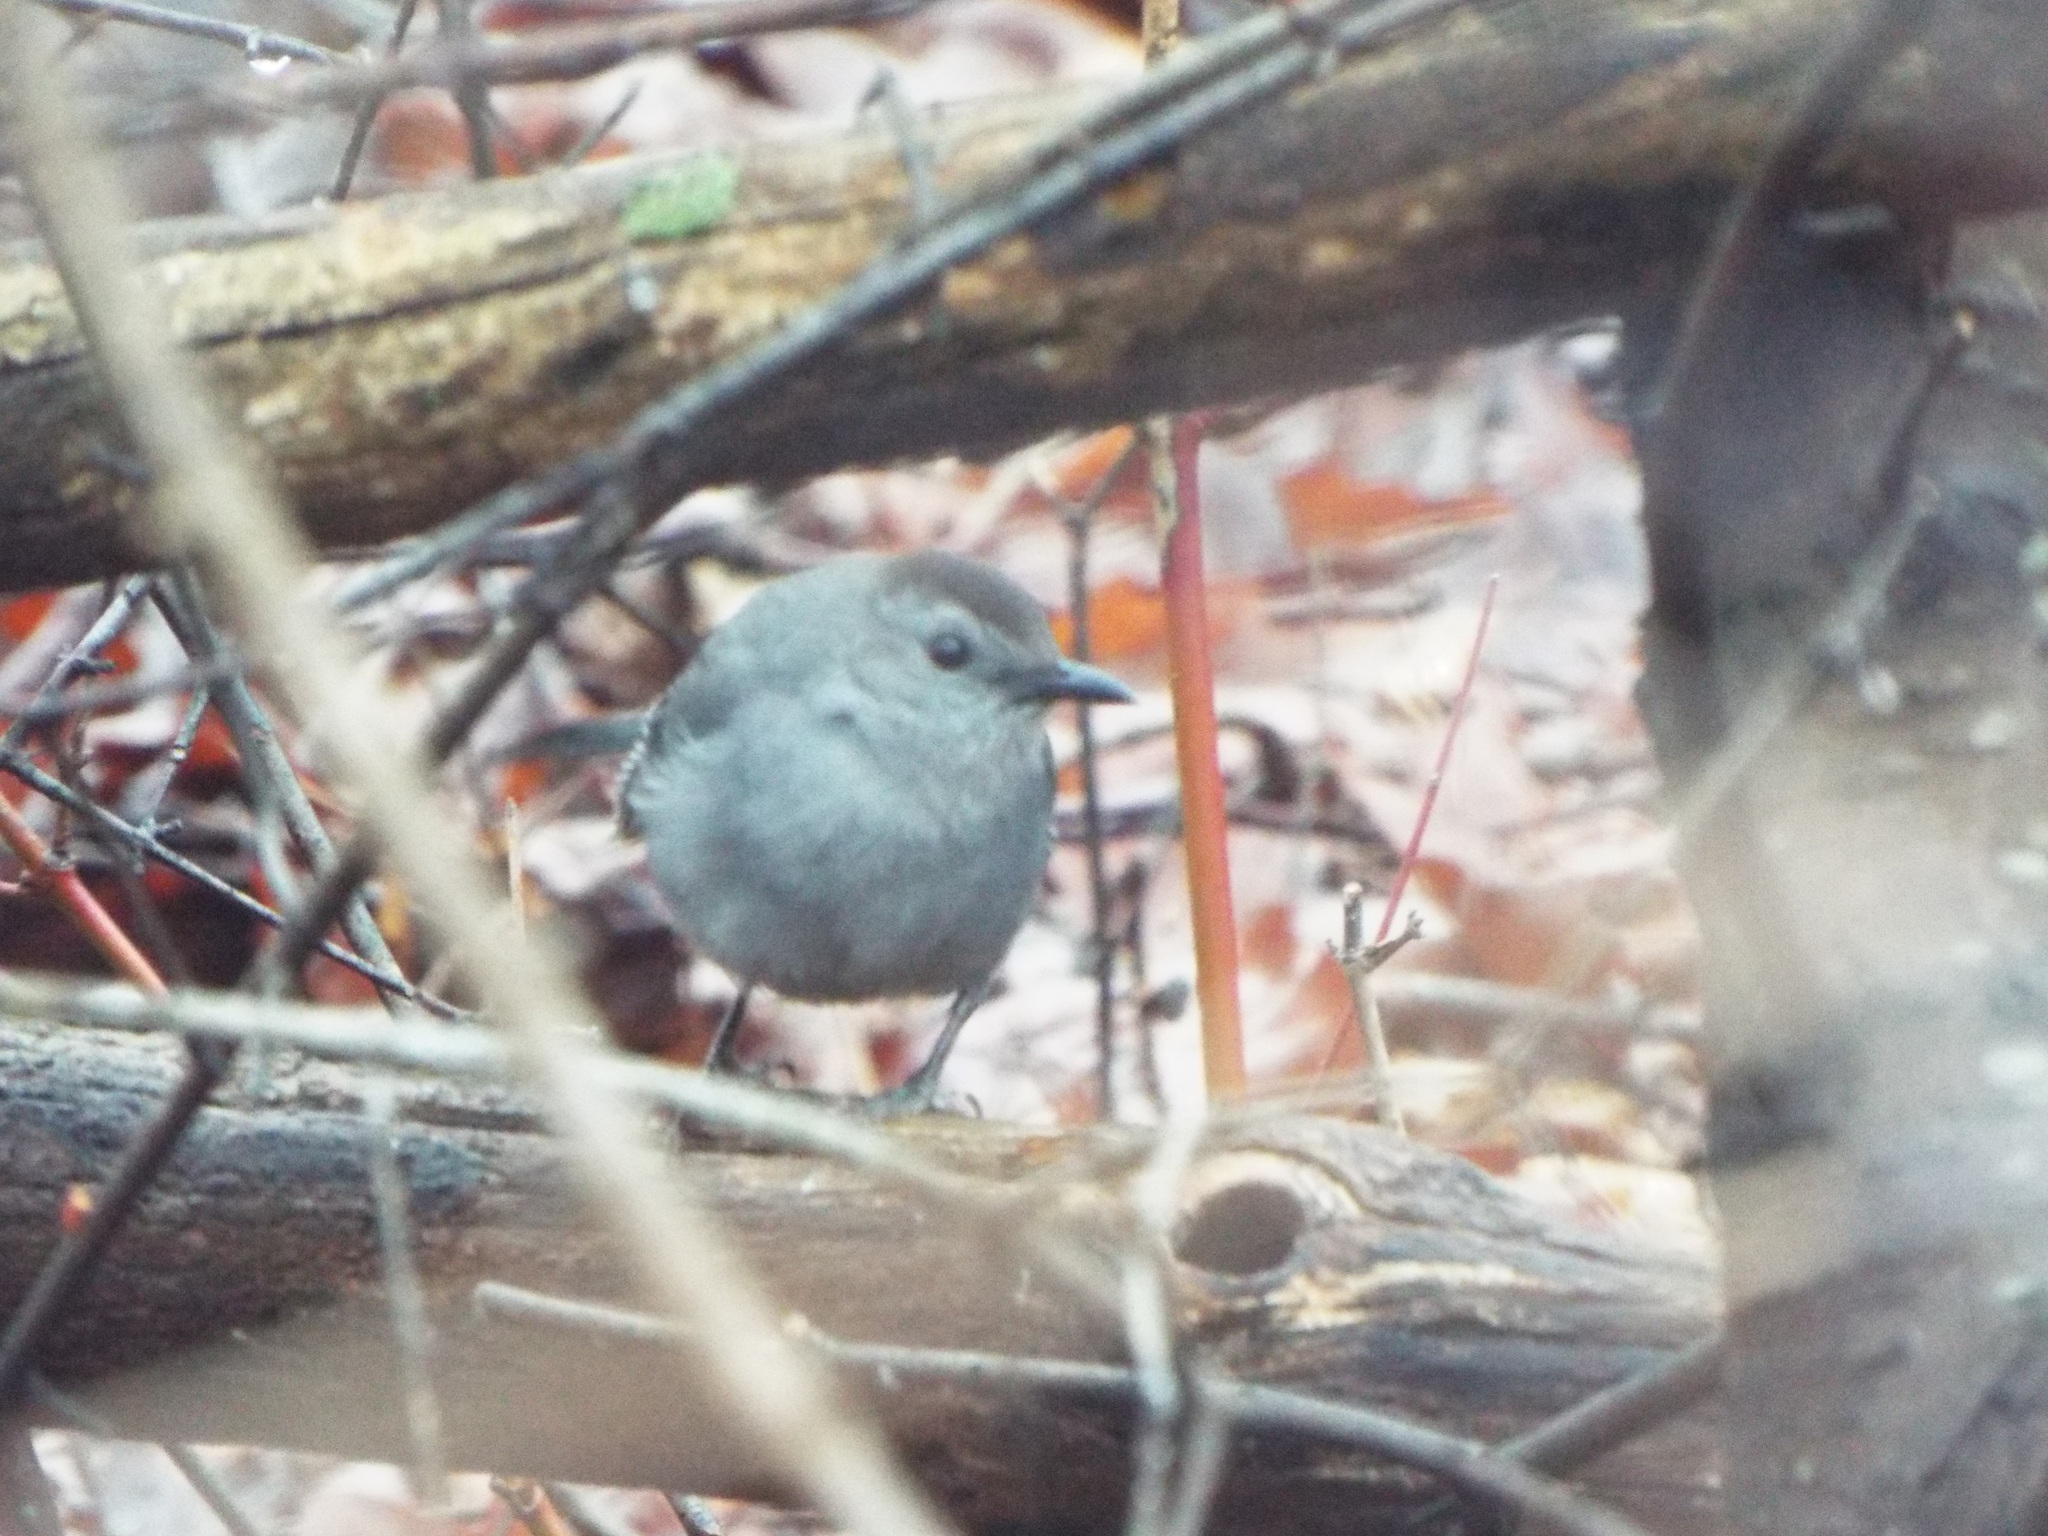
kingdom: Animalia
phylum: Chordata
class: Aves
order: Passeriformes
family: Mimidae
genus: Dumetella
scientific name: Dumetella carolinensis
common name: Gray catbird
